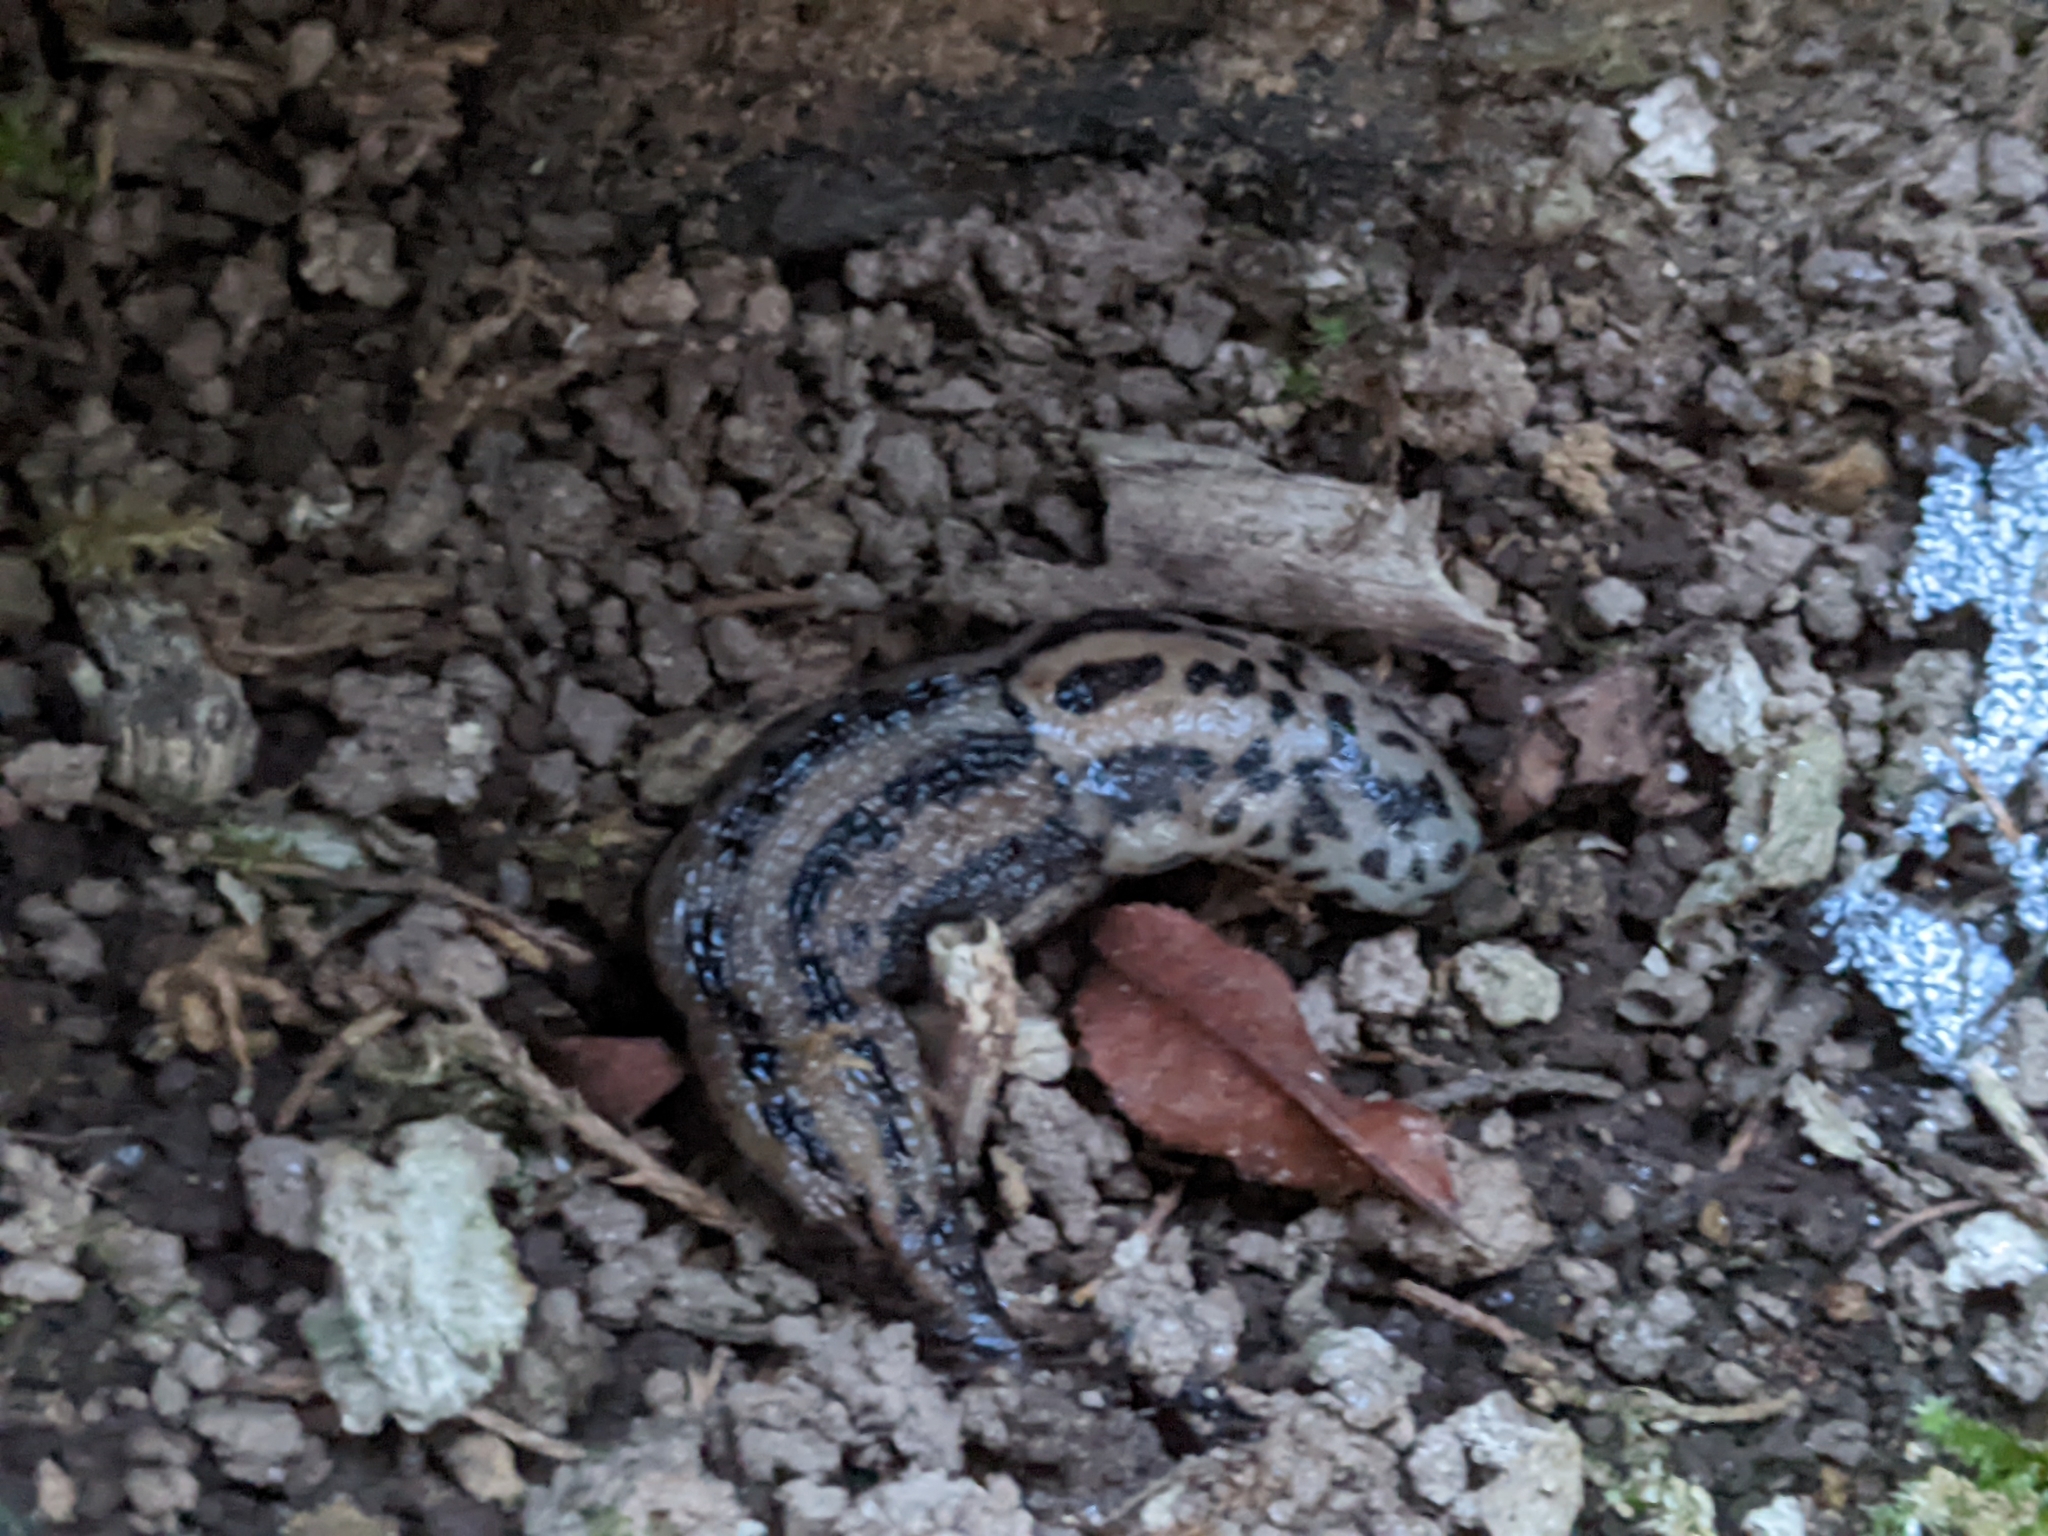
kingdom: Animalia
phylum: Mollusca
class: Gastropoda
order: Stylommatophora
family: Limacidae
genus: Limax
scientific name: Limax maximus
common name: Great grey slug
